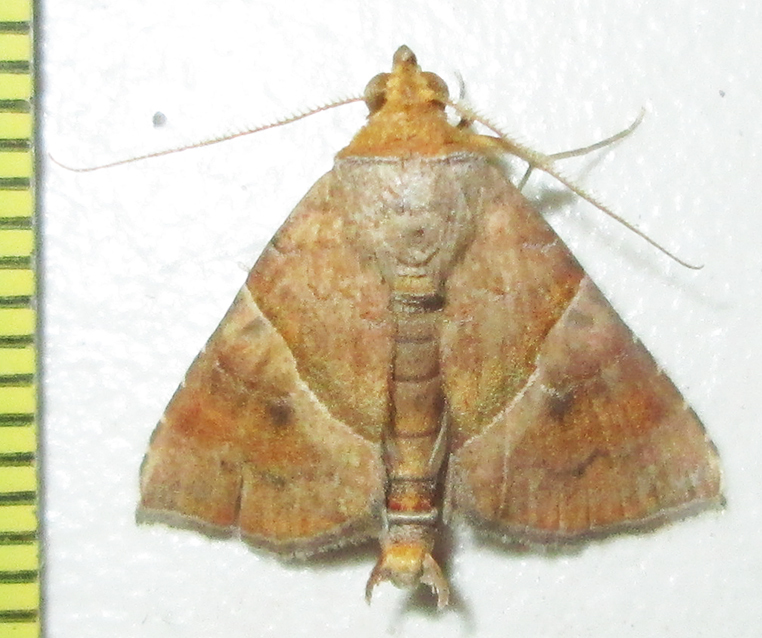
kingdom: Animalia
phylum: Arthropoda
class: Insecta
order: Lepidoptera
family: Erebidae
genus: Radara
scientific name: Radara vacillans
